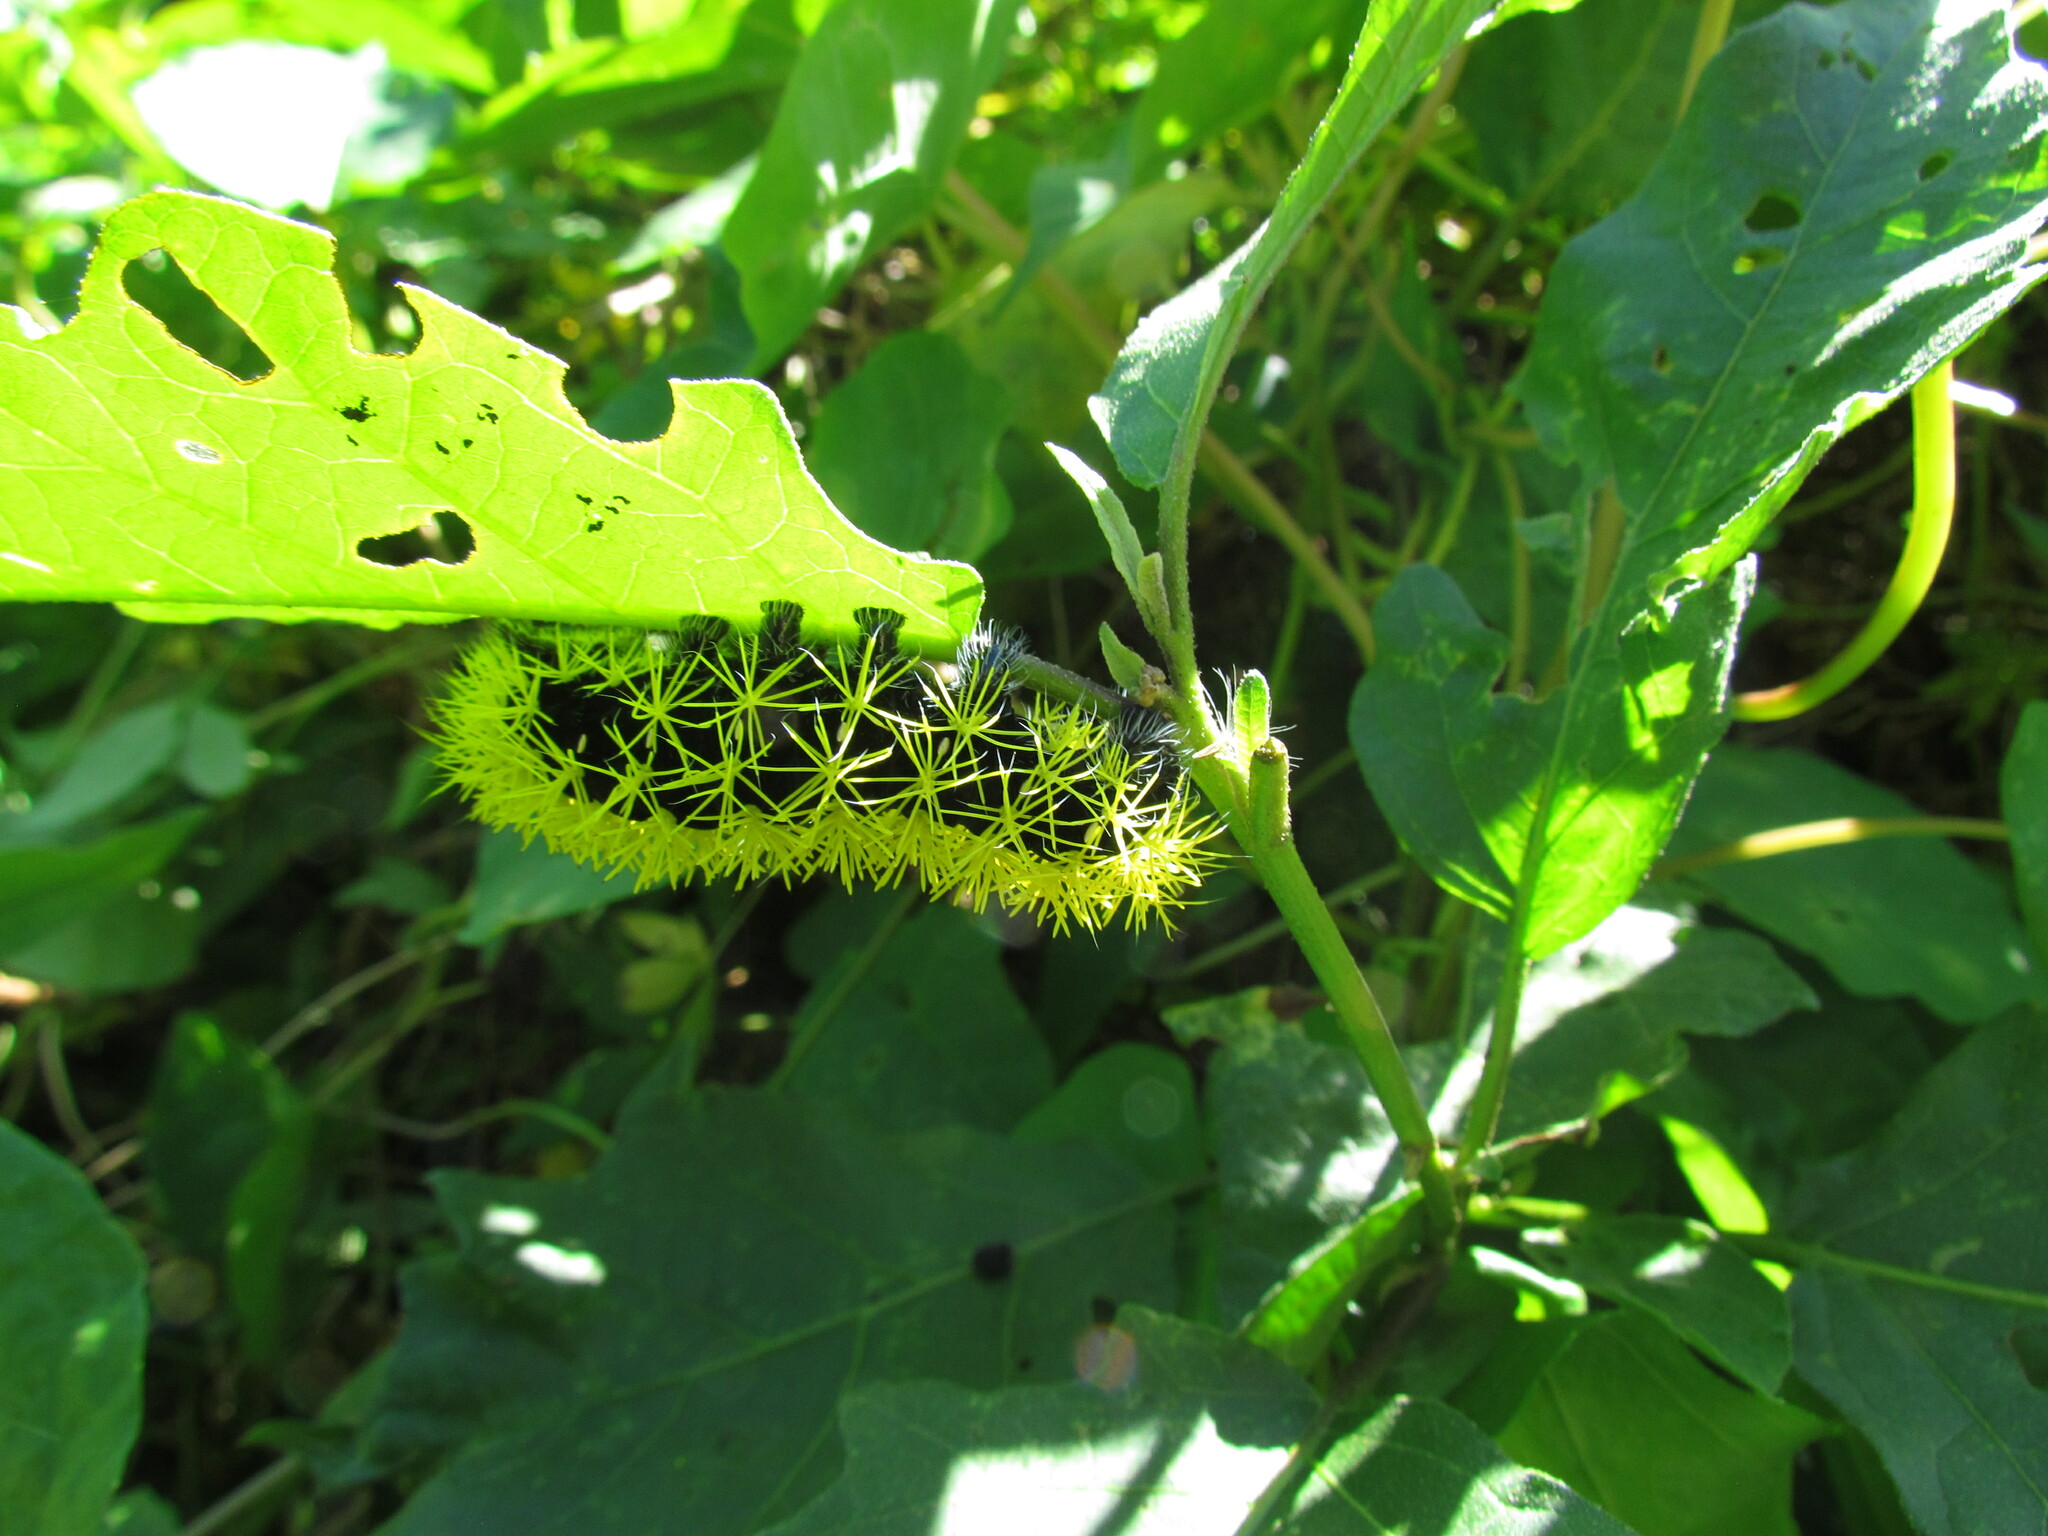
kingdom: Animalia
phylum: Arthropoda
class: Insecta
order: Lepidoptera
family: Saturniidae
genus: Leucanella
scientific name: Leucanella viridescens
